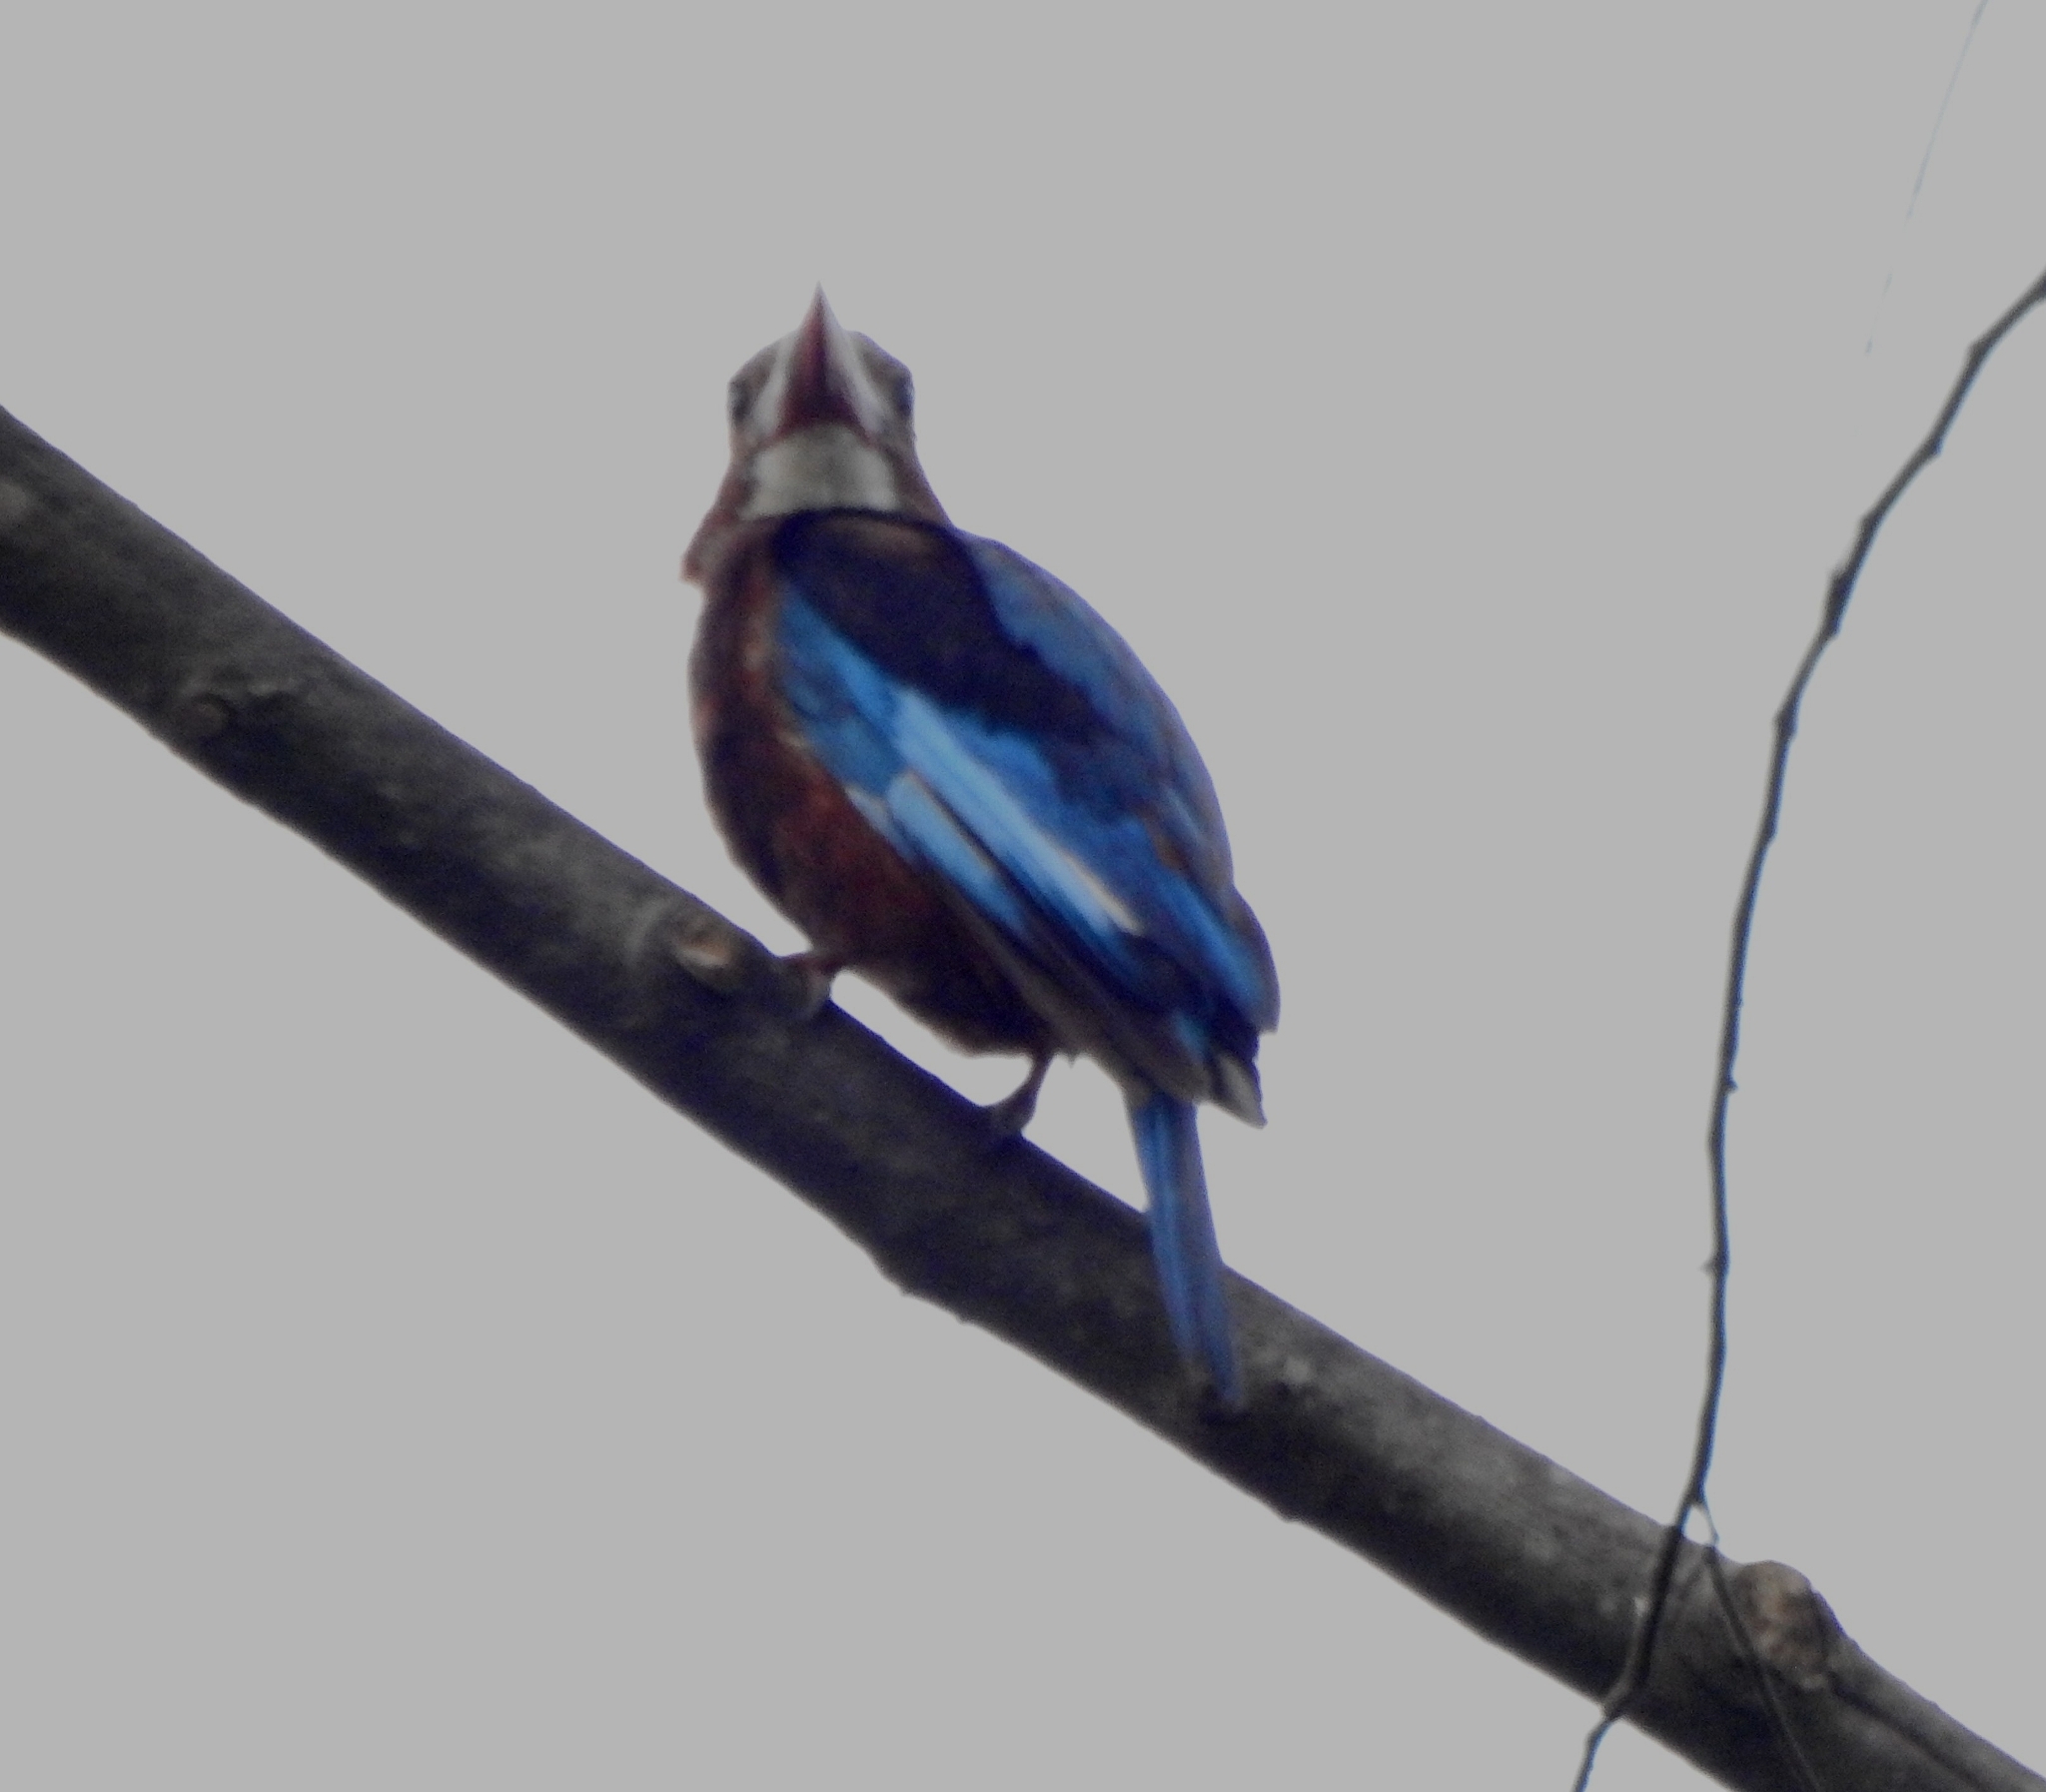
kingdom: Animalia
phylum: Chordata
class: Aves
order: Coraciiformes
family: Alcedinidae
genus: Halcyon
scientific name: Halcyon smyrnensis
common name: White-throated kingfisher
